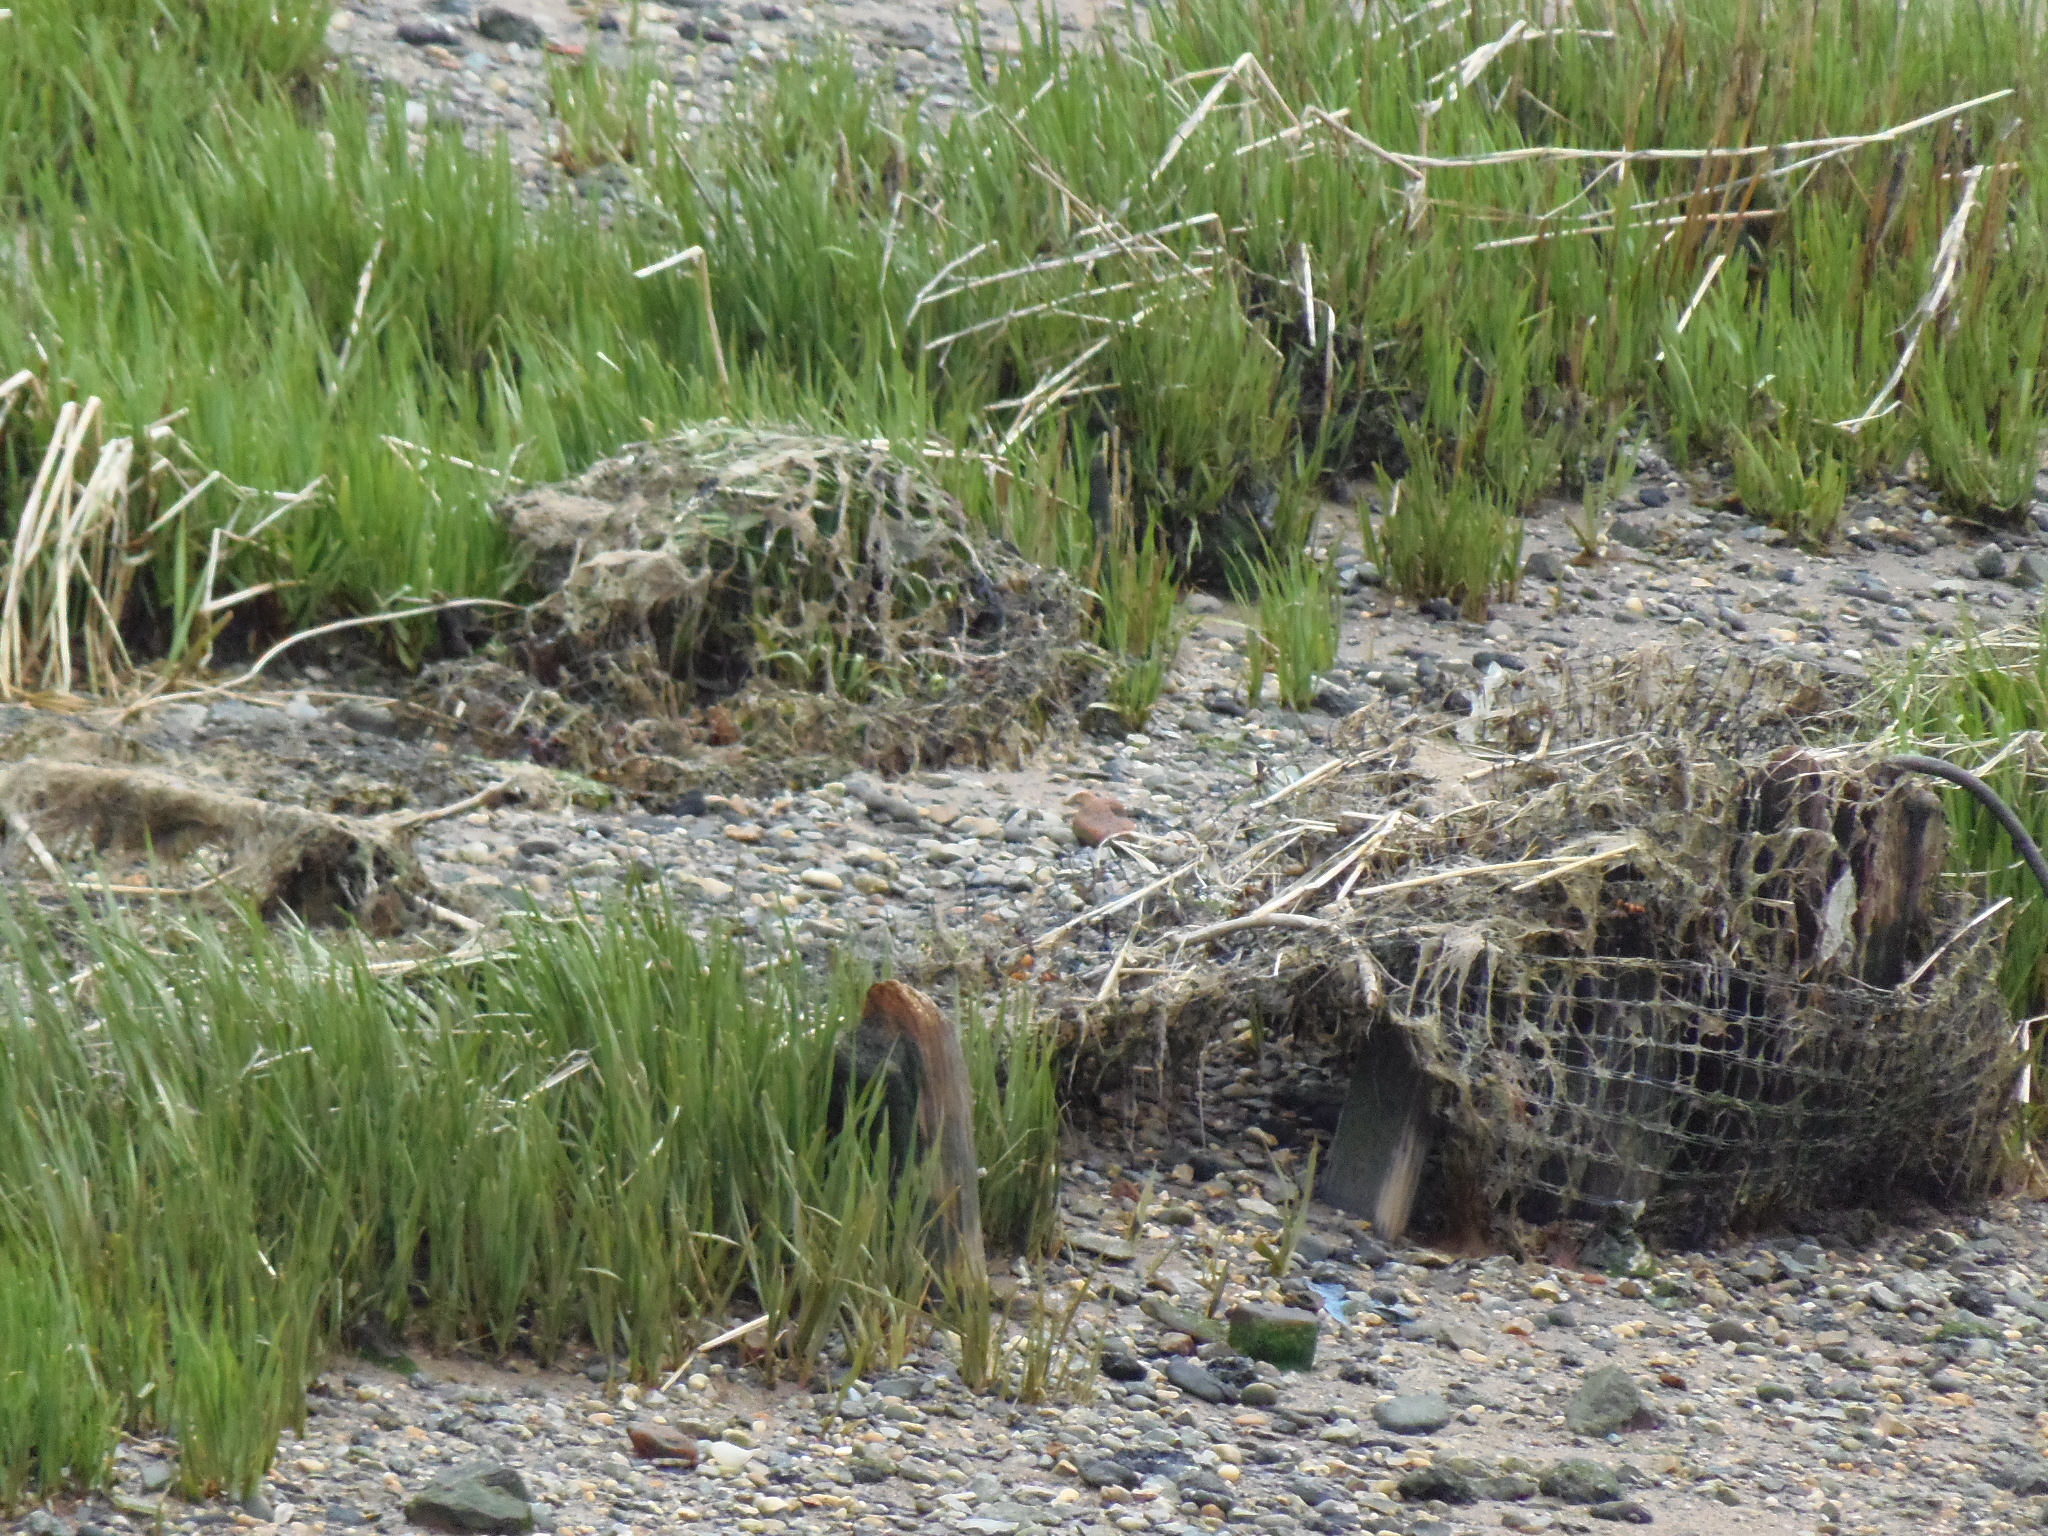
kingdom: Plantae
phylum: Tracheophyta
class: Liliopsida
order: Poales
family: Poaceae
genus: Sporobolus
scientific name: Sporobolus alterniflorus
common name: Atlantic cordgrass
